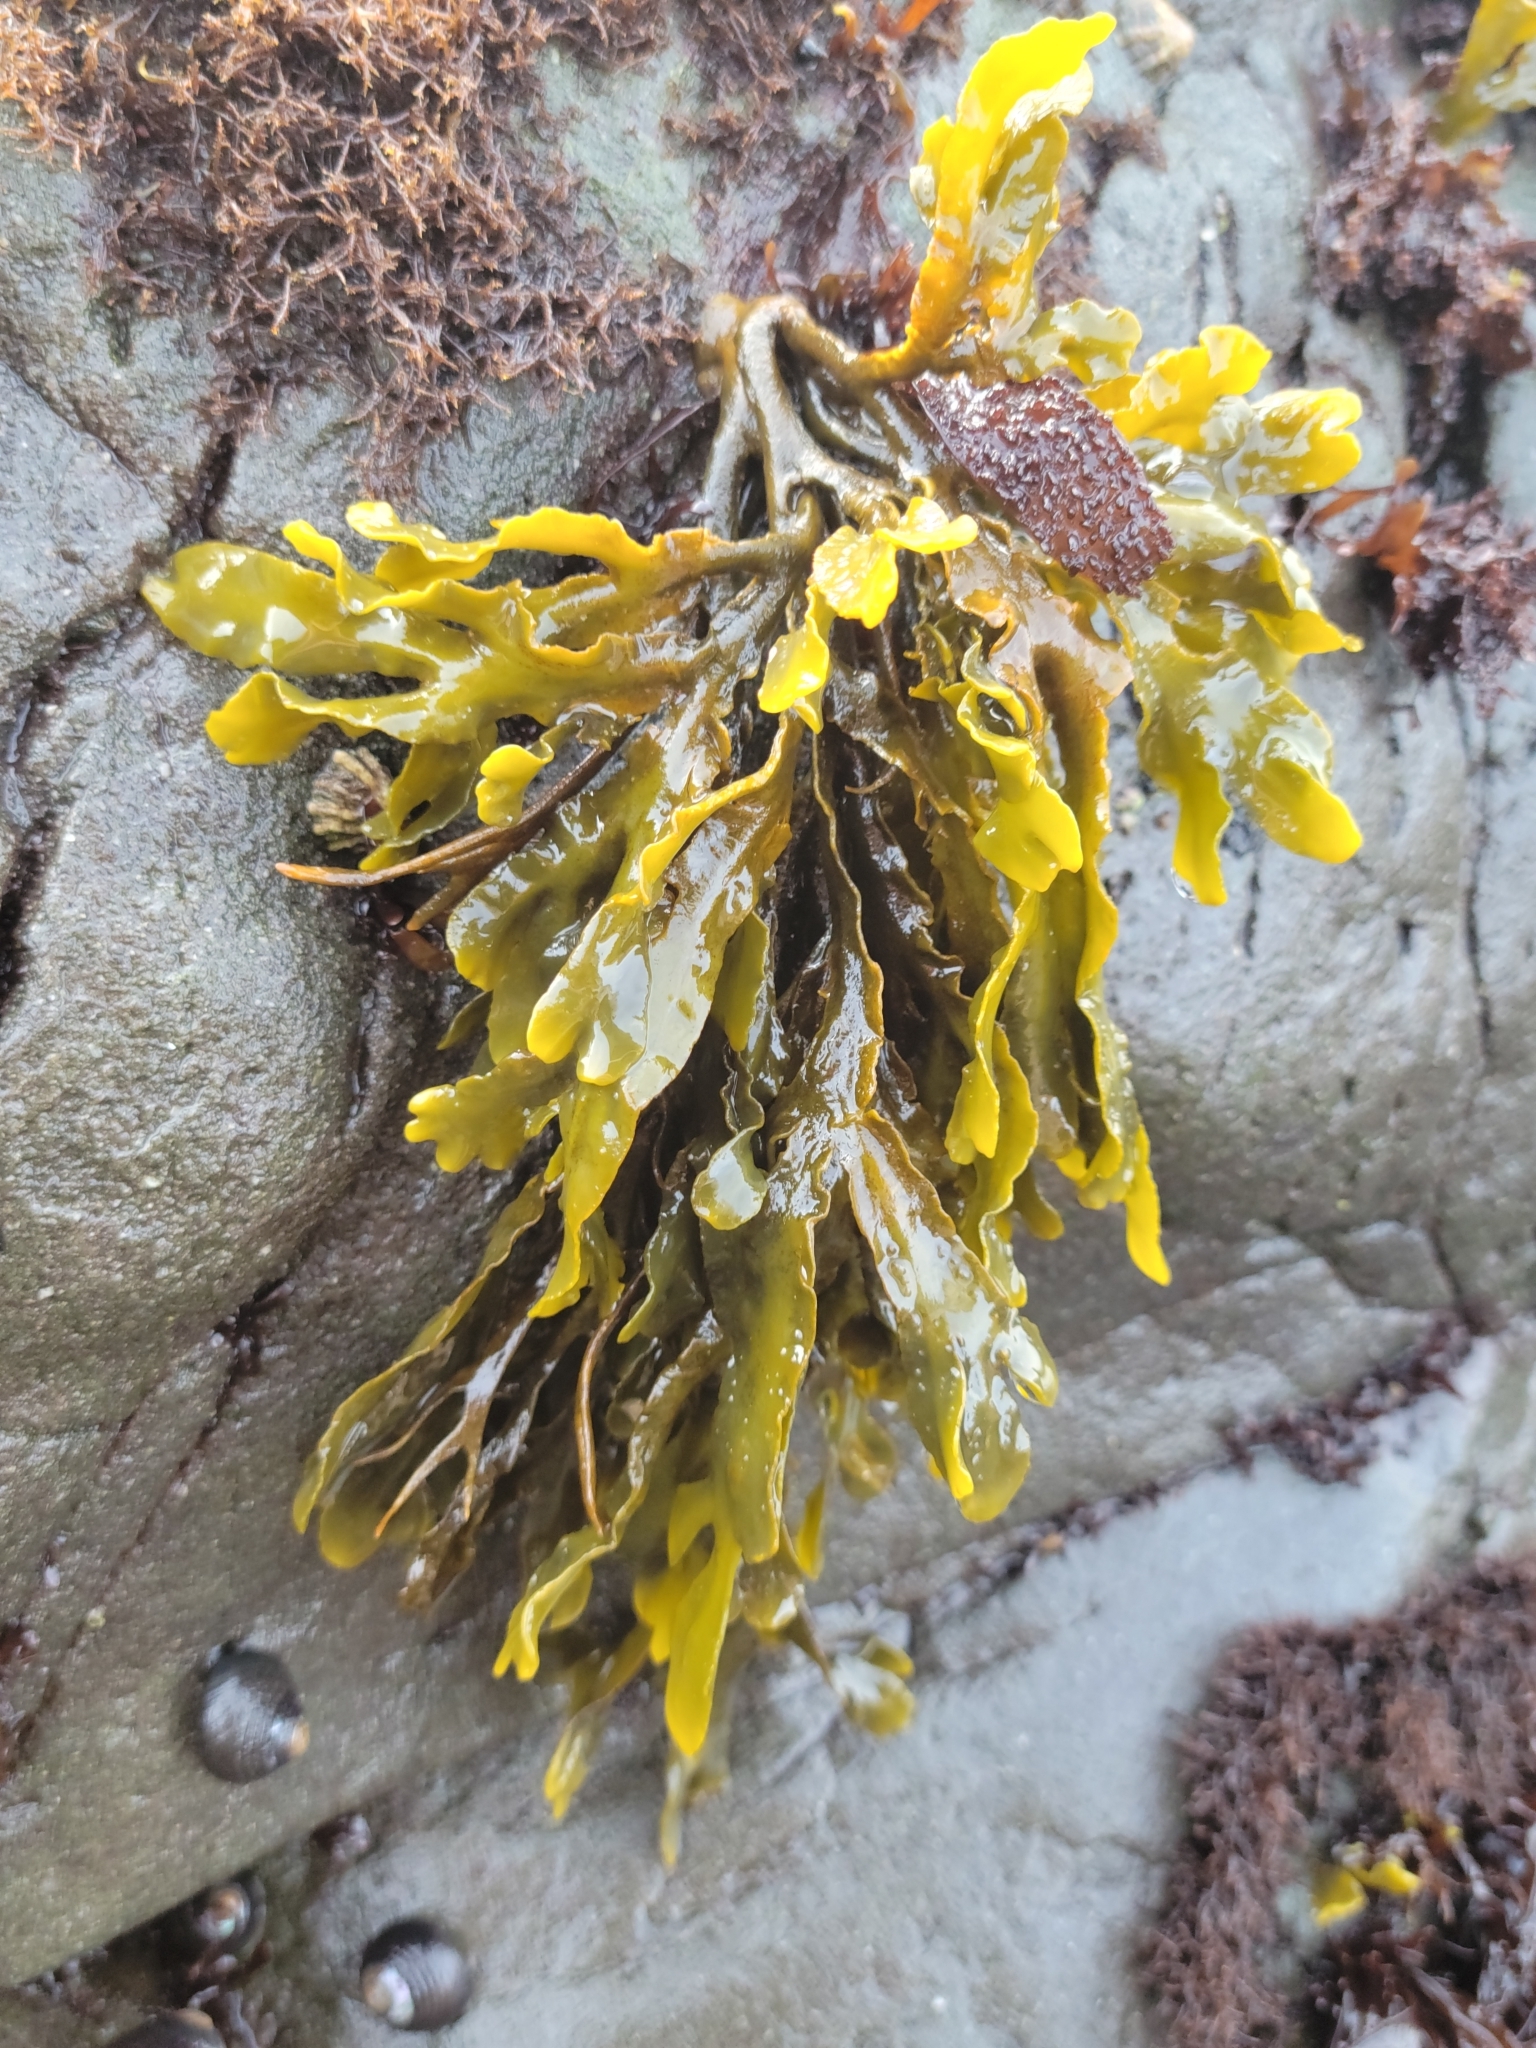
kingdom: Chromista
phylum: Ochrophyta
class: Phaeophyceae
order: Fucales
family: Fucaceae
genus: Pelvetiopsis
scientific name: Pelvetiopsis
